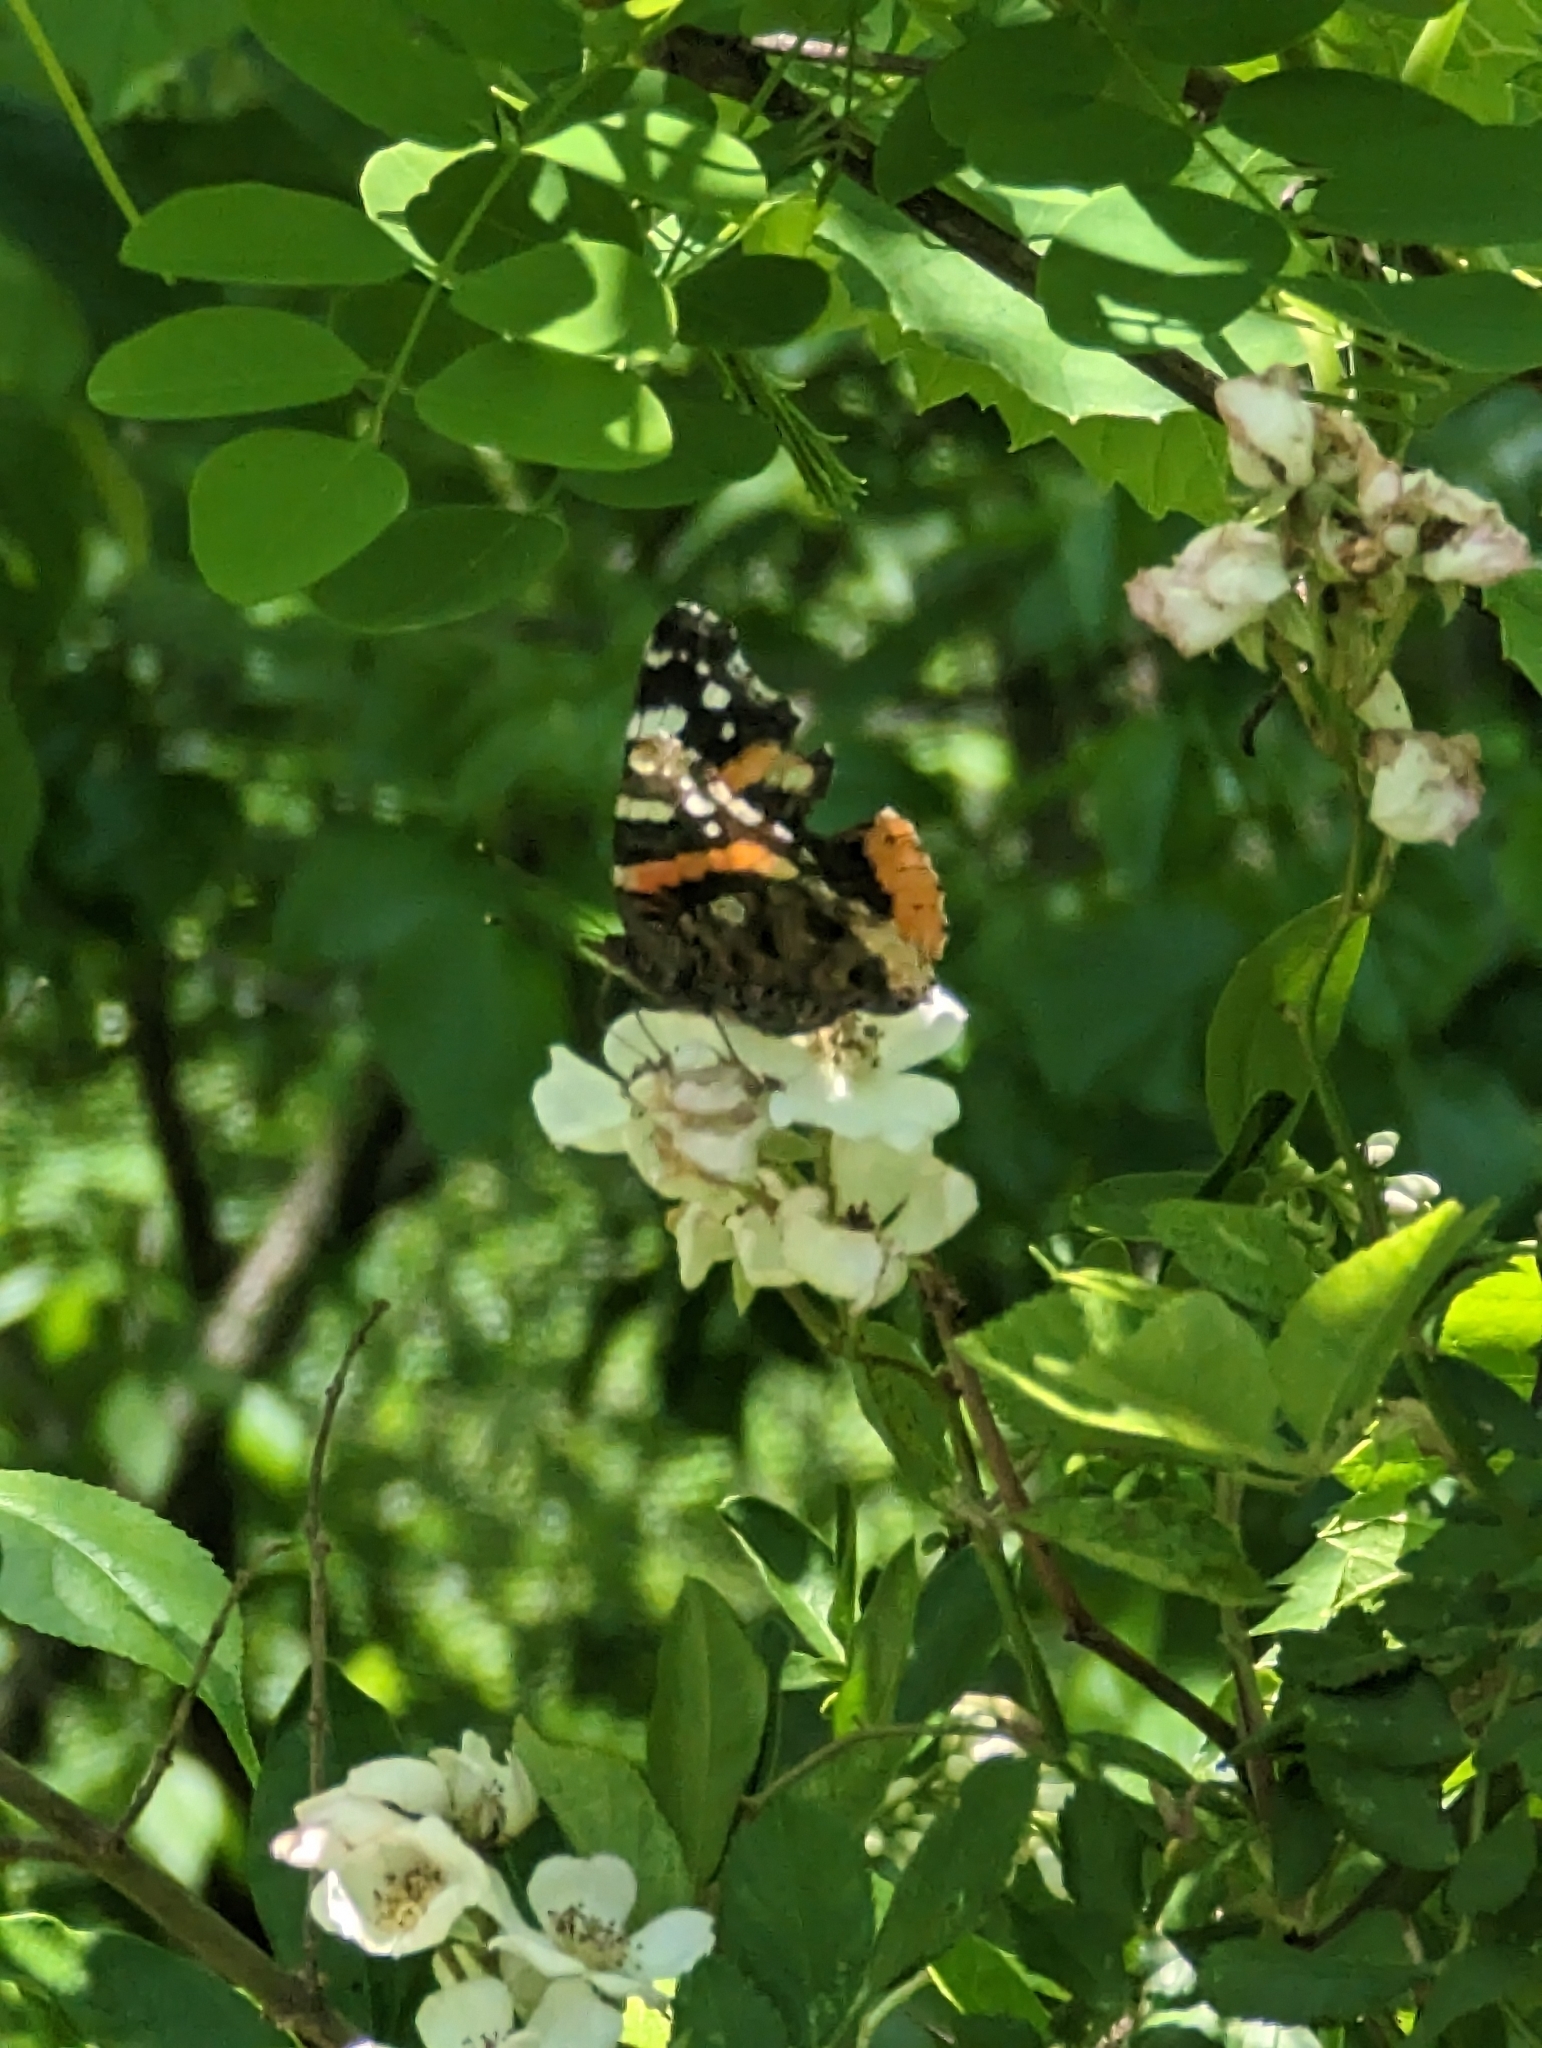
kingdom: Animalia
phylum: Arthropoda
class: Insecta
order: Lepidoptera
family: Nymphalidae
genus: Vanessa
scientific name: Vanessa atalanta
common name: Red admiral
